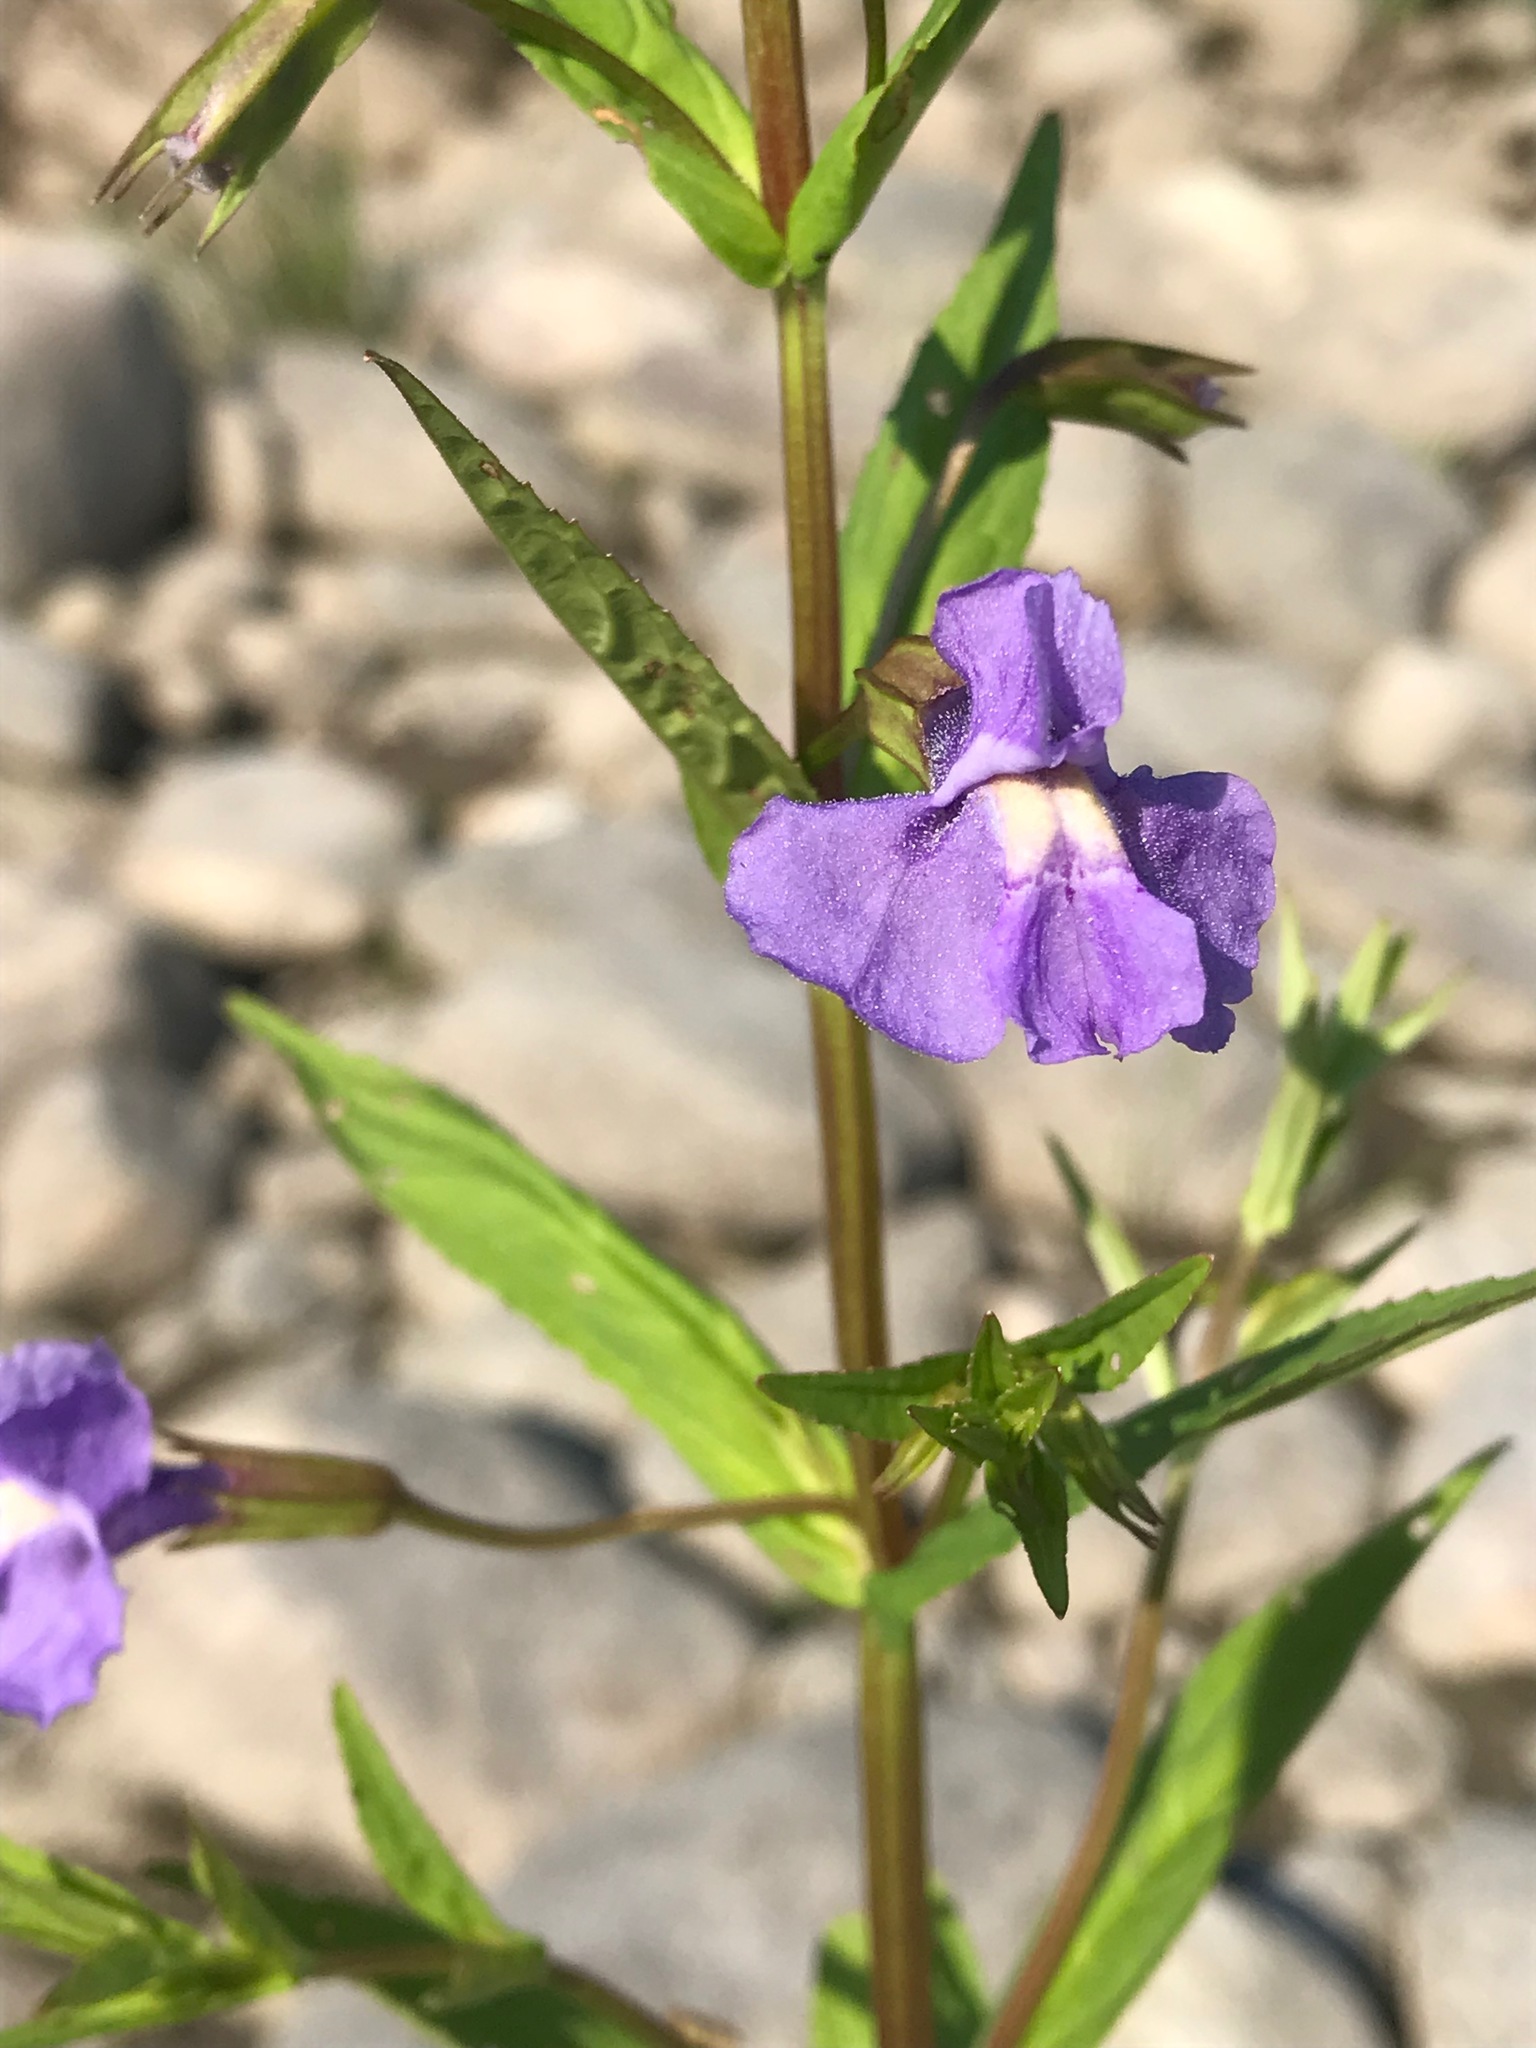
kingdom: Plantae
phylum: Tracheophyta
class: Magnoliopsida
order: Lamiales
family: Phrymaceae
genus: Mimulus
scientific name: Mimulus ringens
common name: Allegheny monkeyflower
